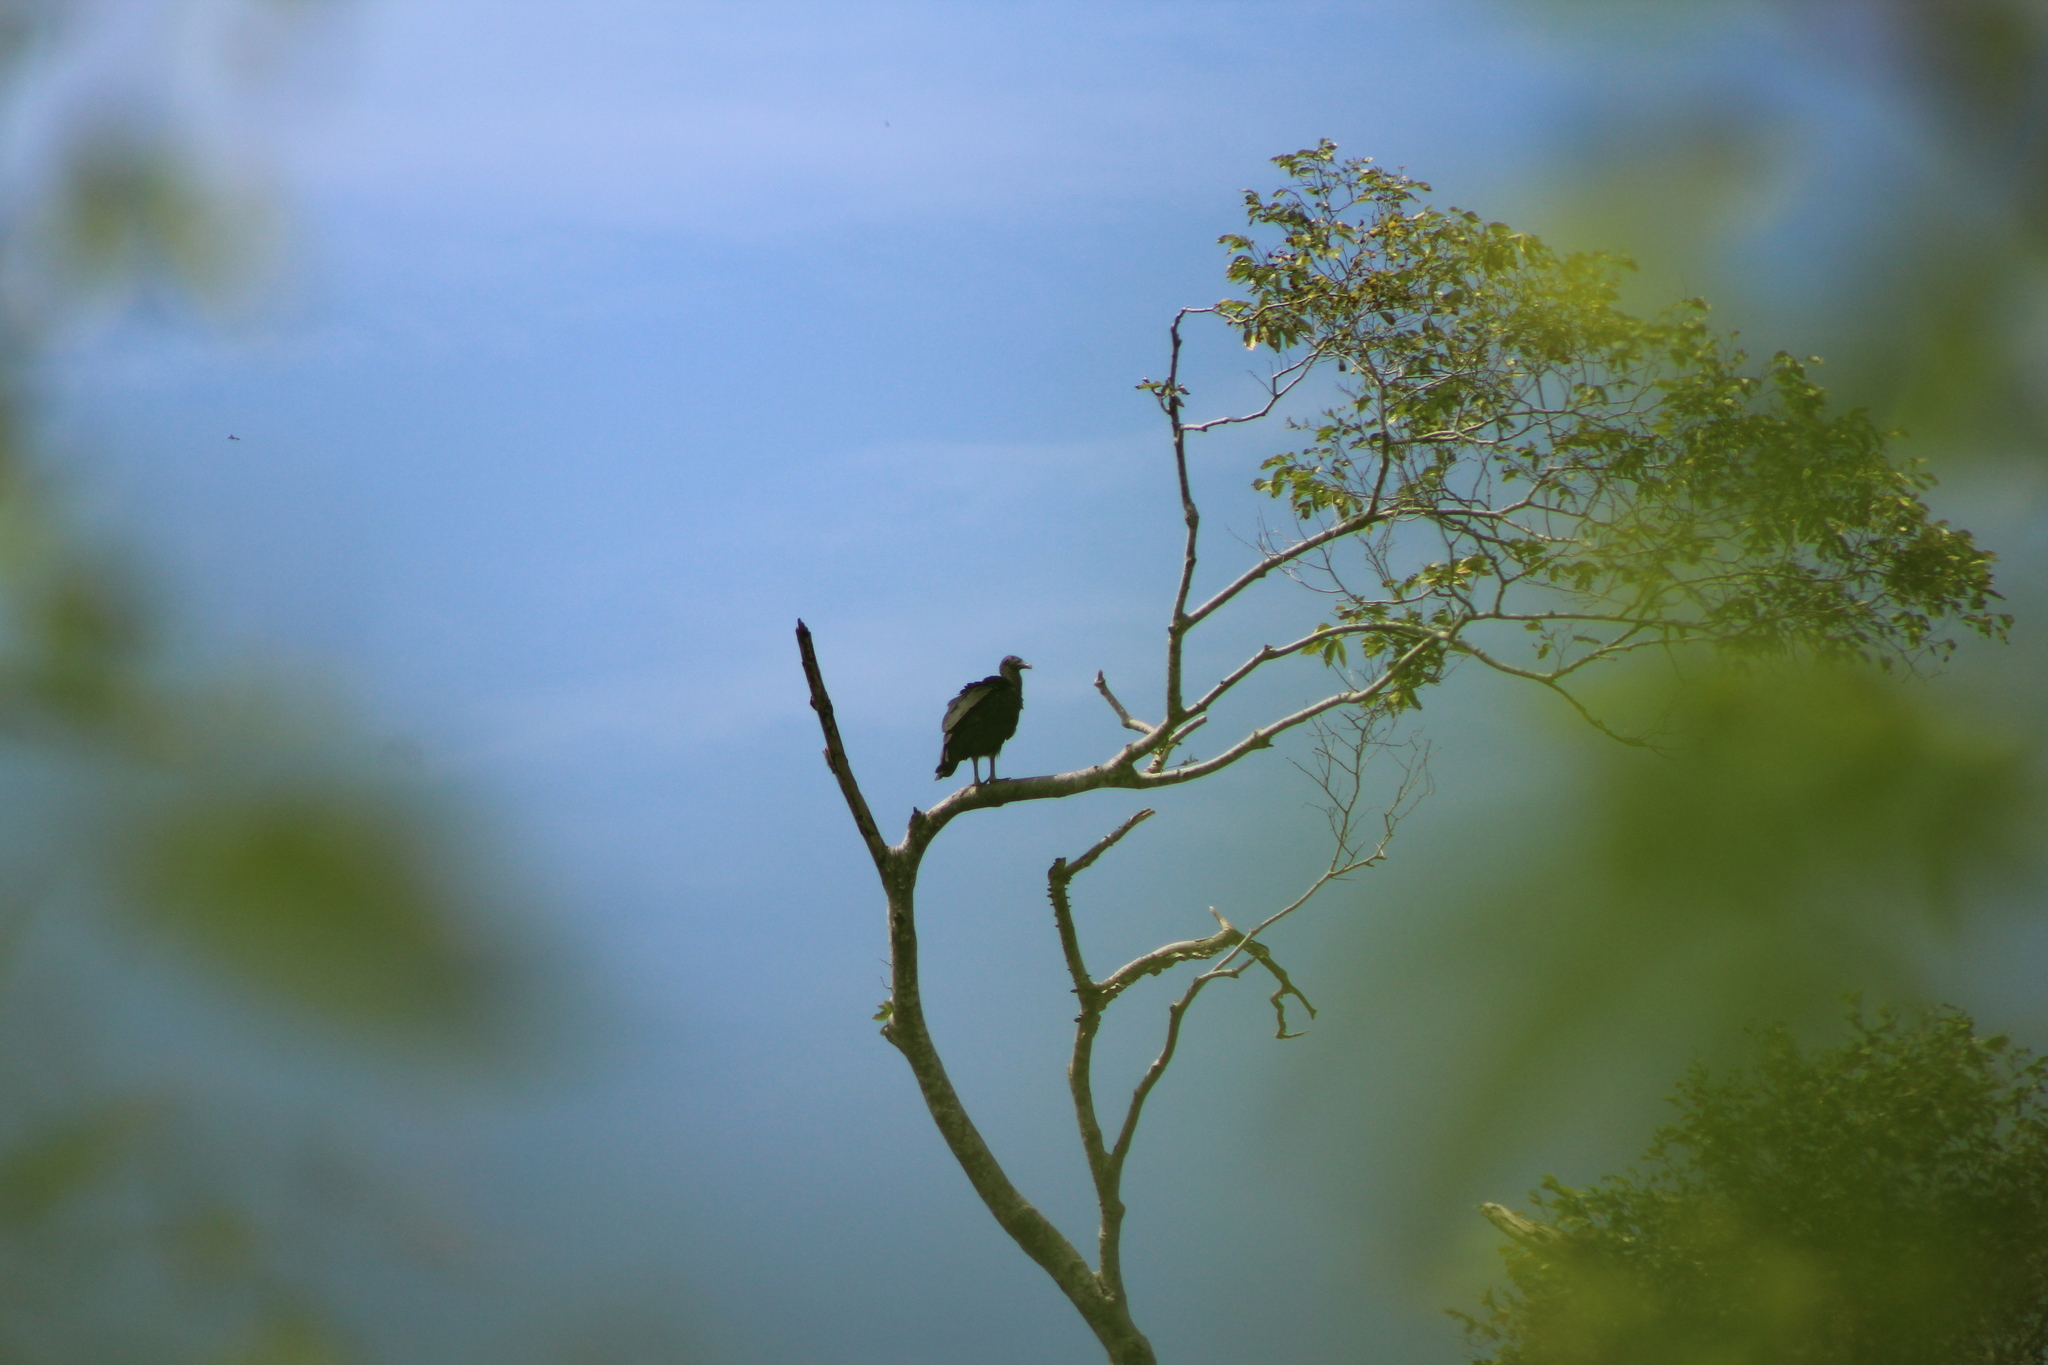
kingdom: Animalia
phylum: Chordata
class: Aves
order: Accipitriformes
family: Cathartidae
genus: Coragyps
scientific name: Coragyps atratus
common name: Black vulture
